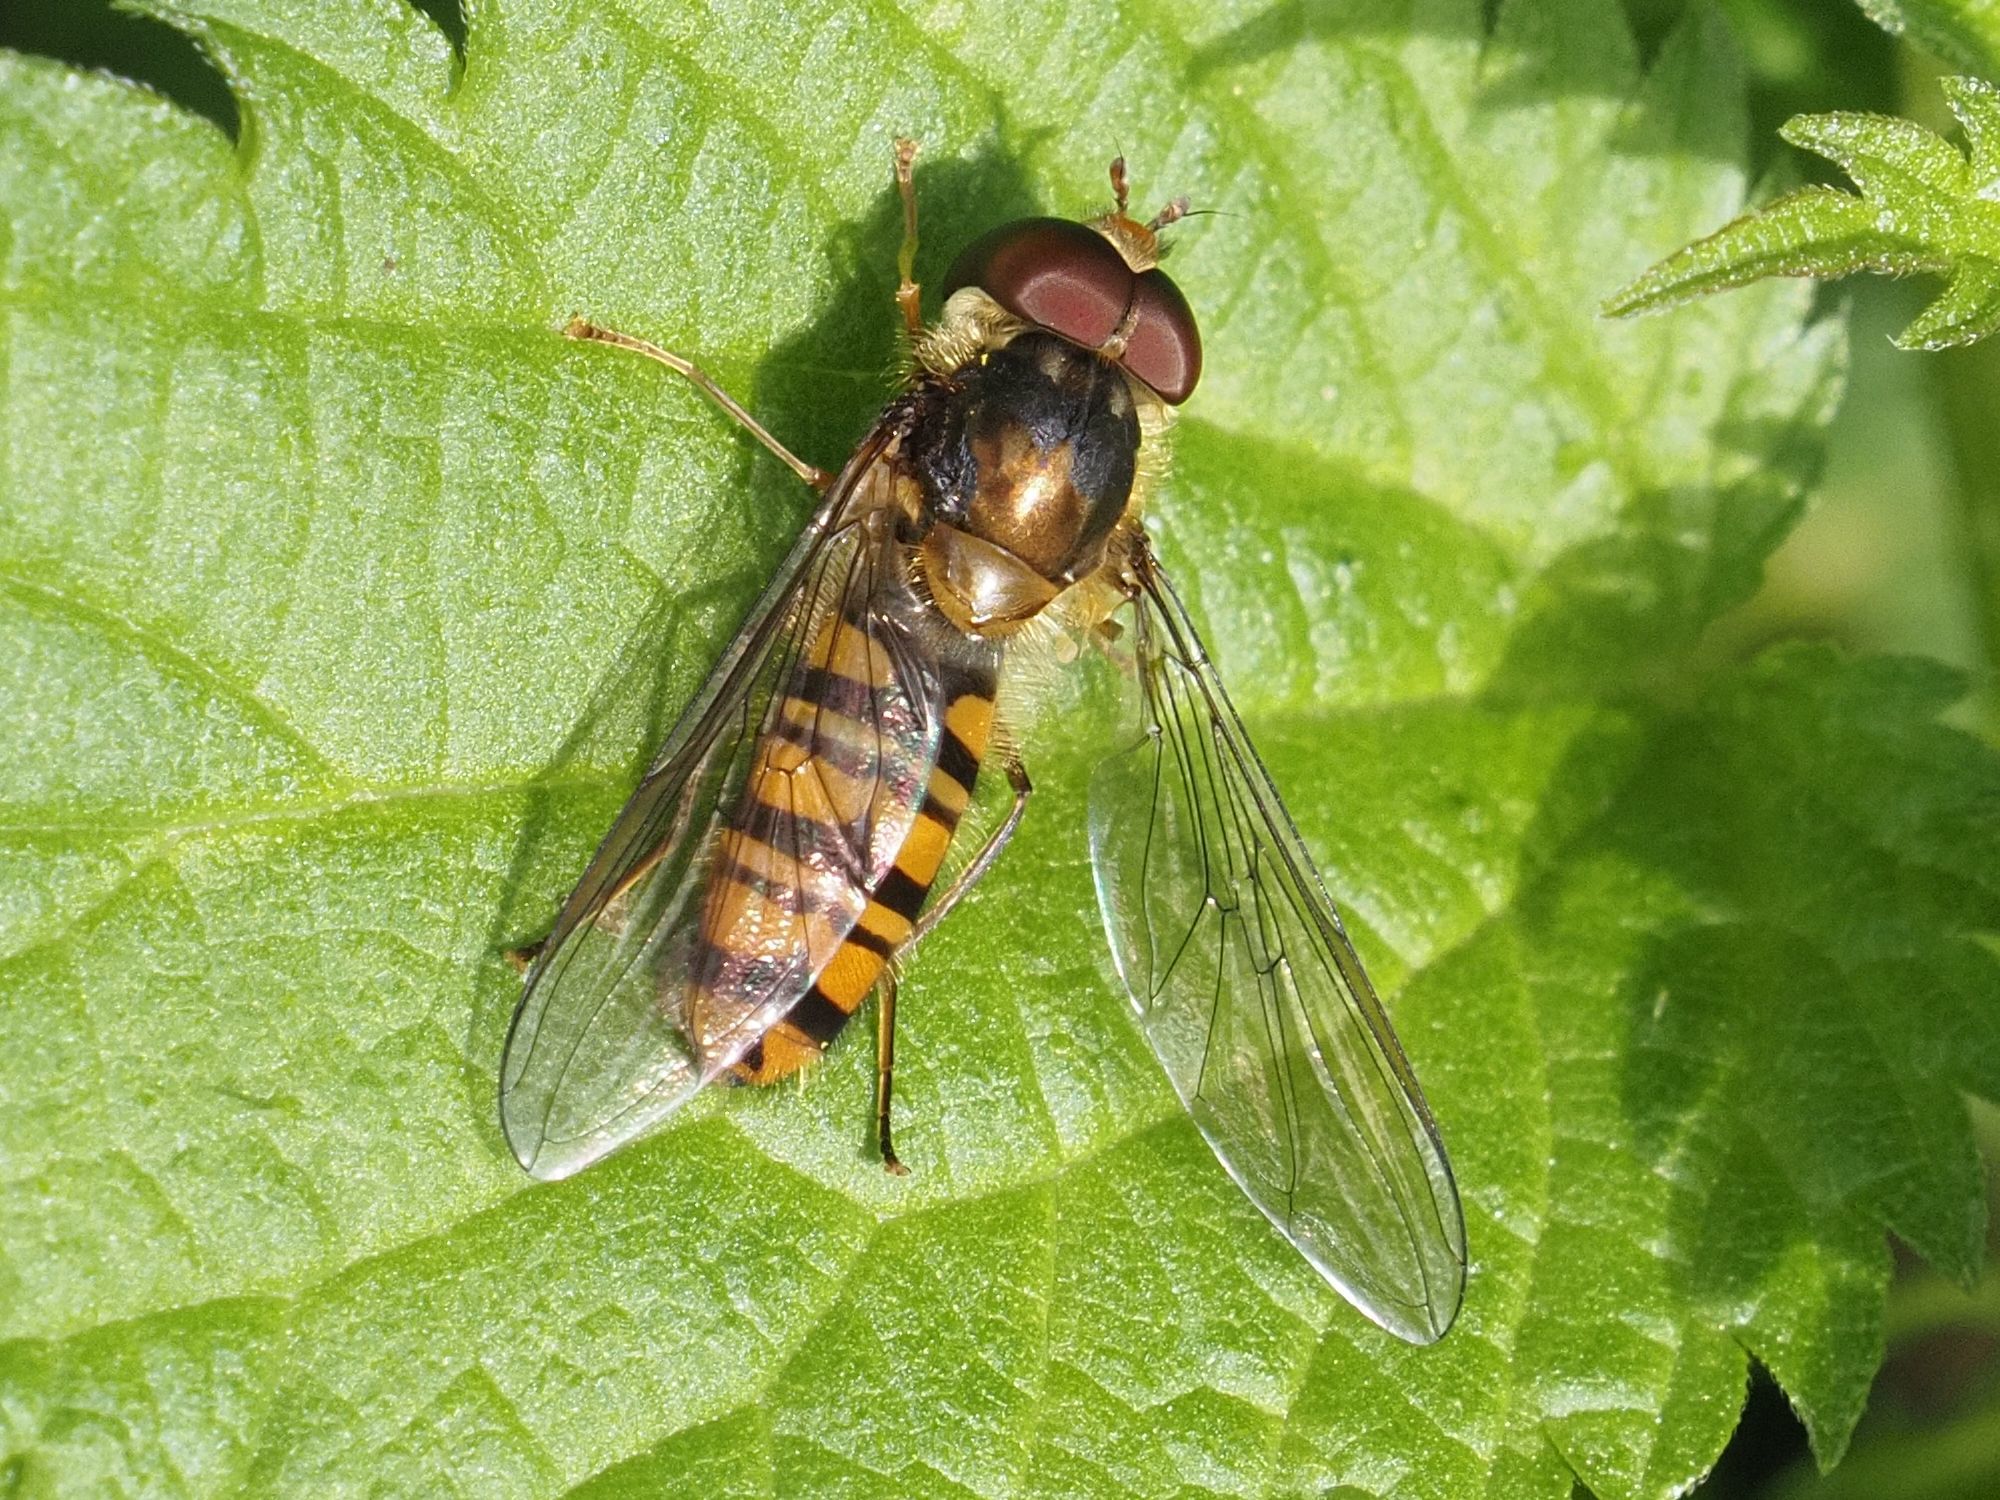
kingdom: Animalia
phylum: Arthropoda
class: Insecta
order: Diptera
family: Syrphidae
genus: Episyrphus
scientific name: Episyrphus balteatus
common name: Marmalade hoverfly
